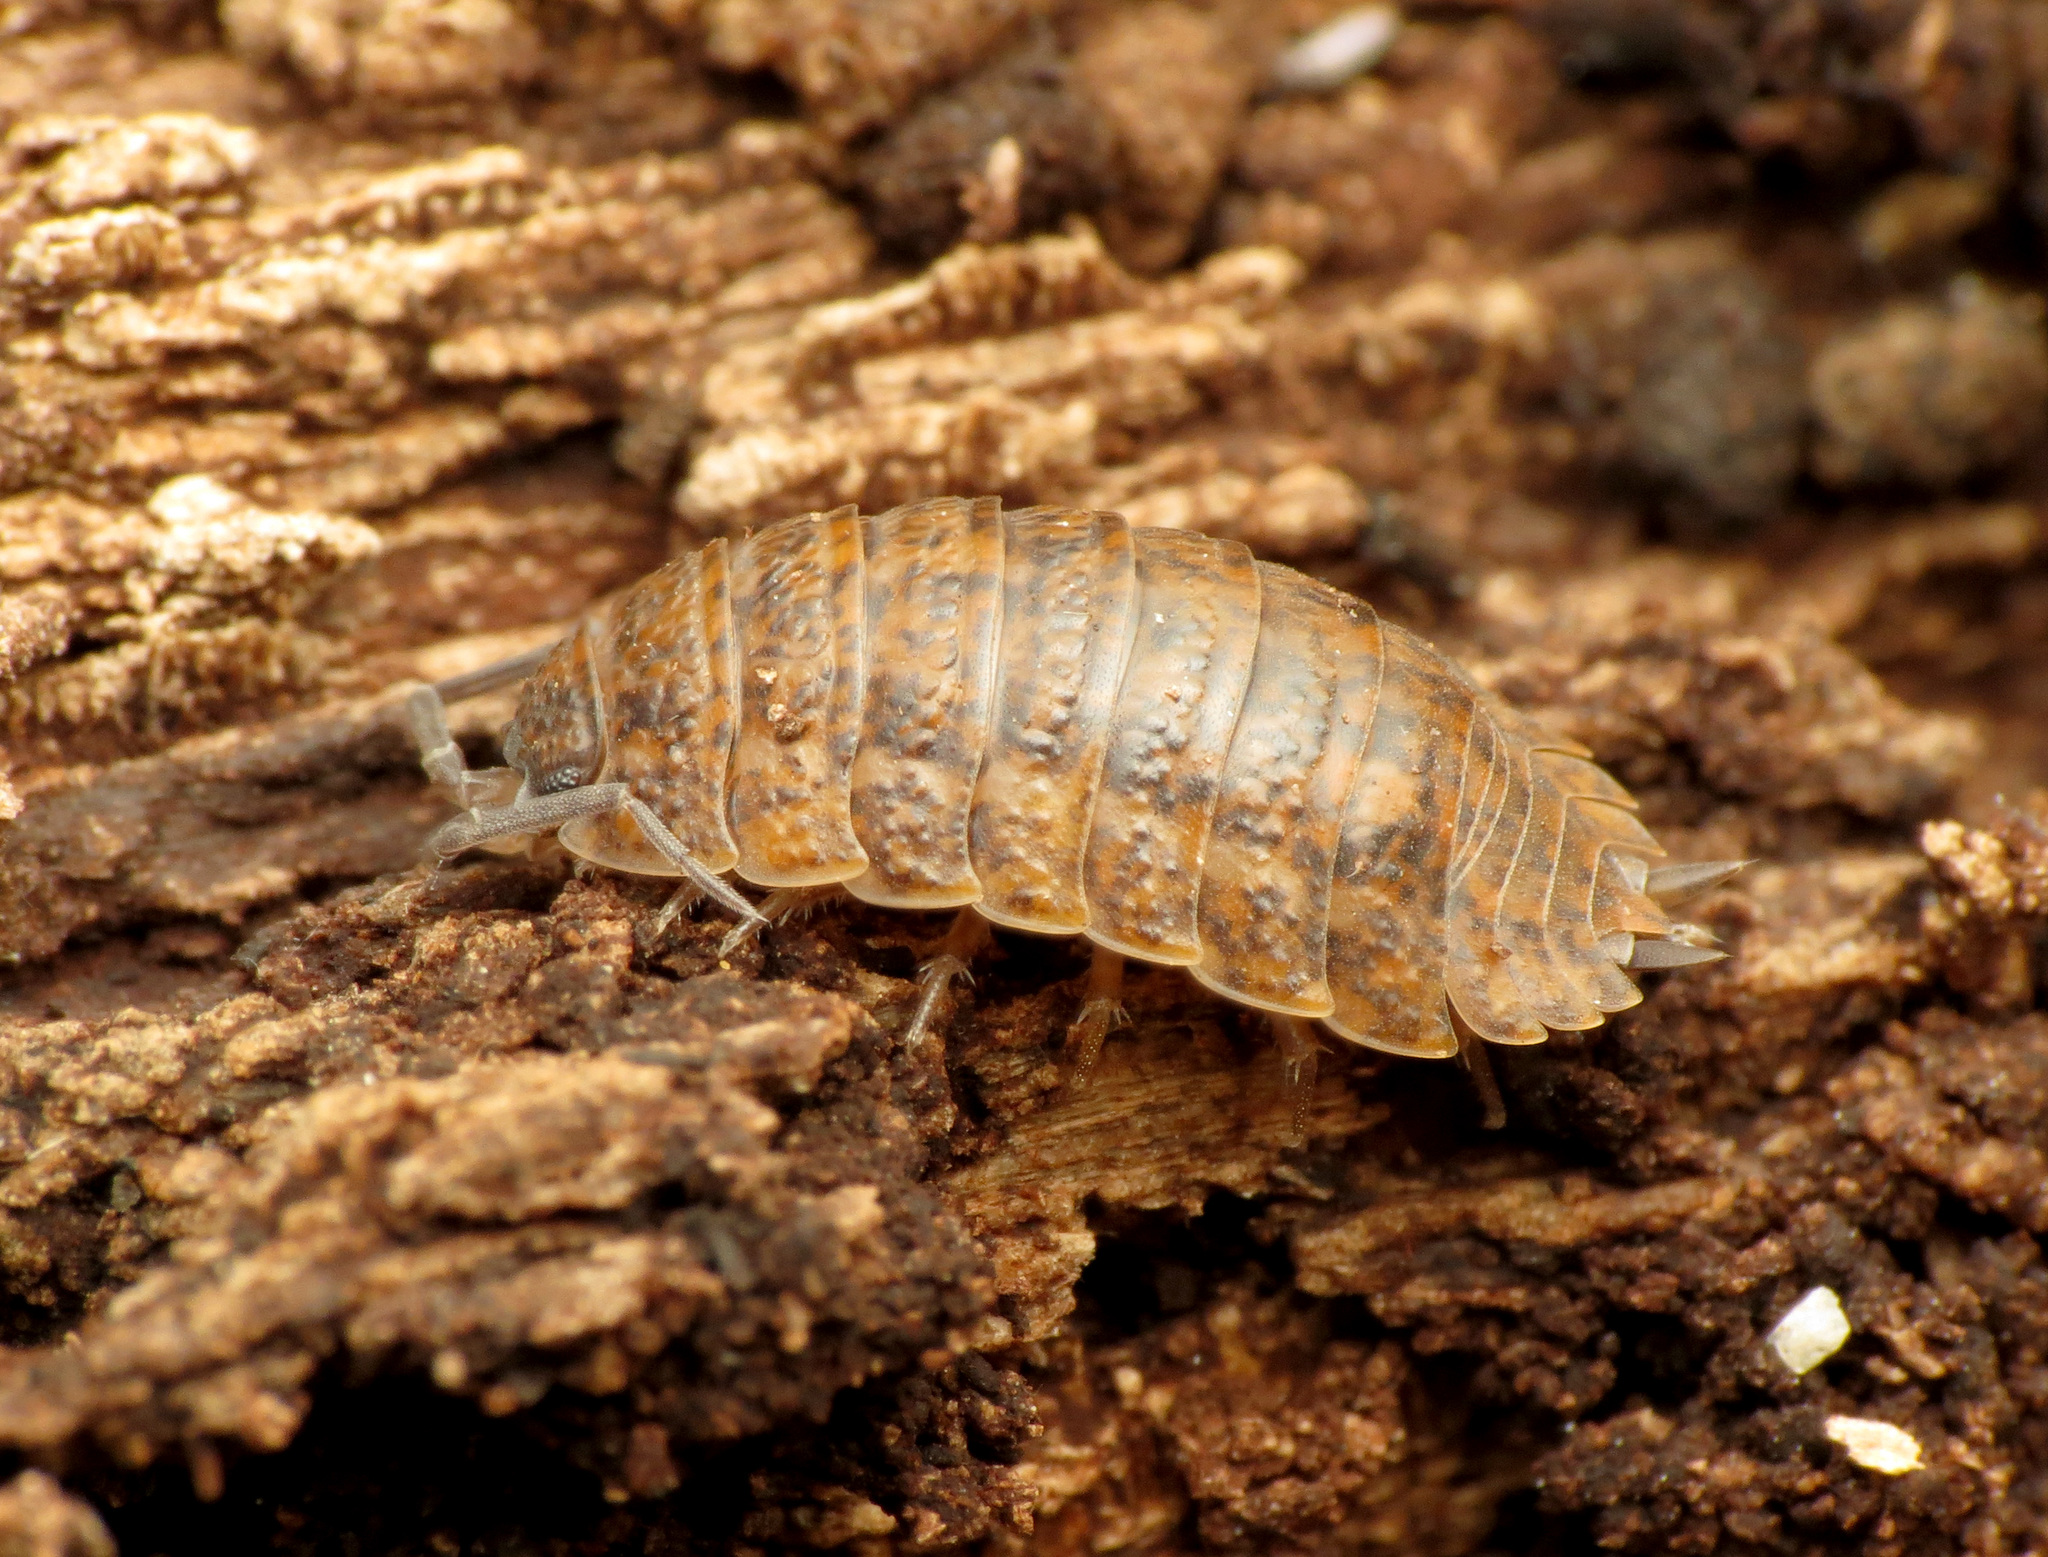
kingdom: Animalia
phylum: Arthropoda
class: Malacostraca
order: Isopoda
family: Trachelipodidae
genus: Trachelipus
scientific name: Trachelipus rathkii
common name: Isopod
